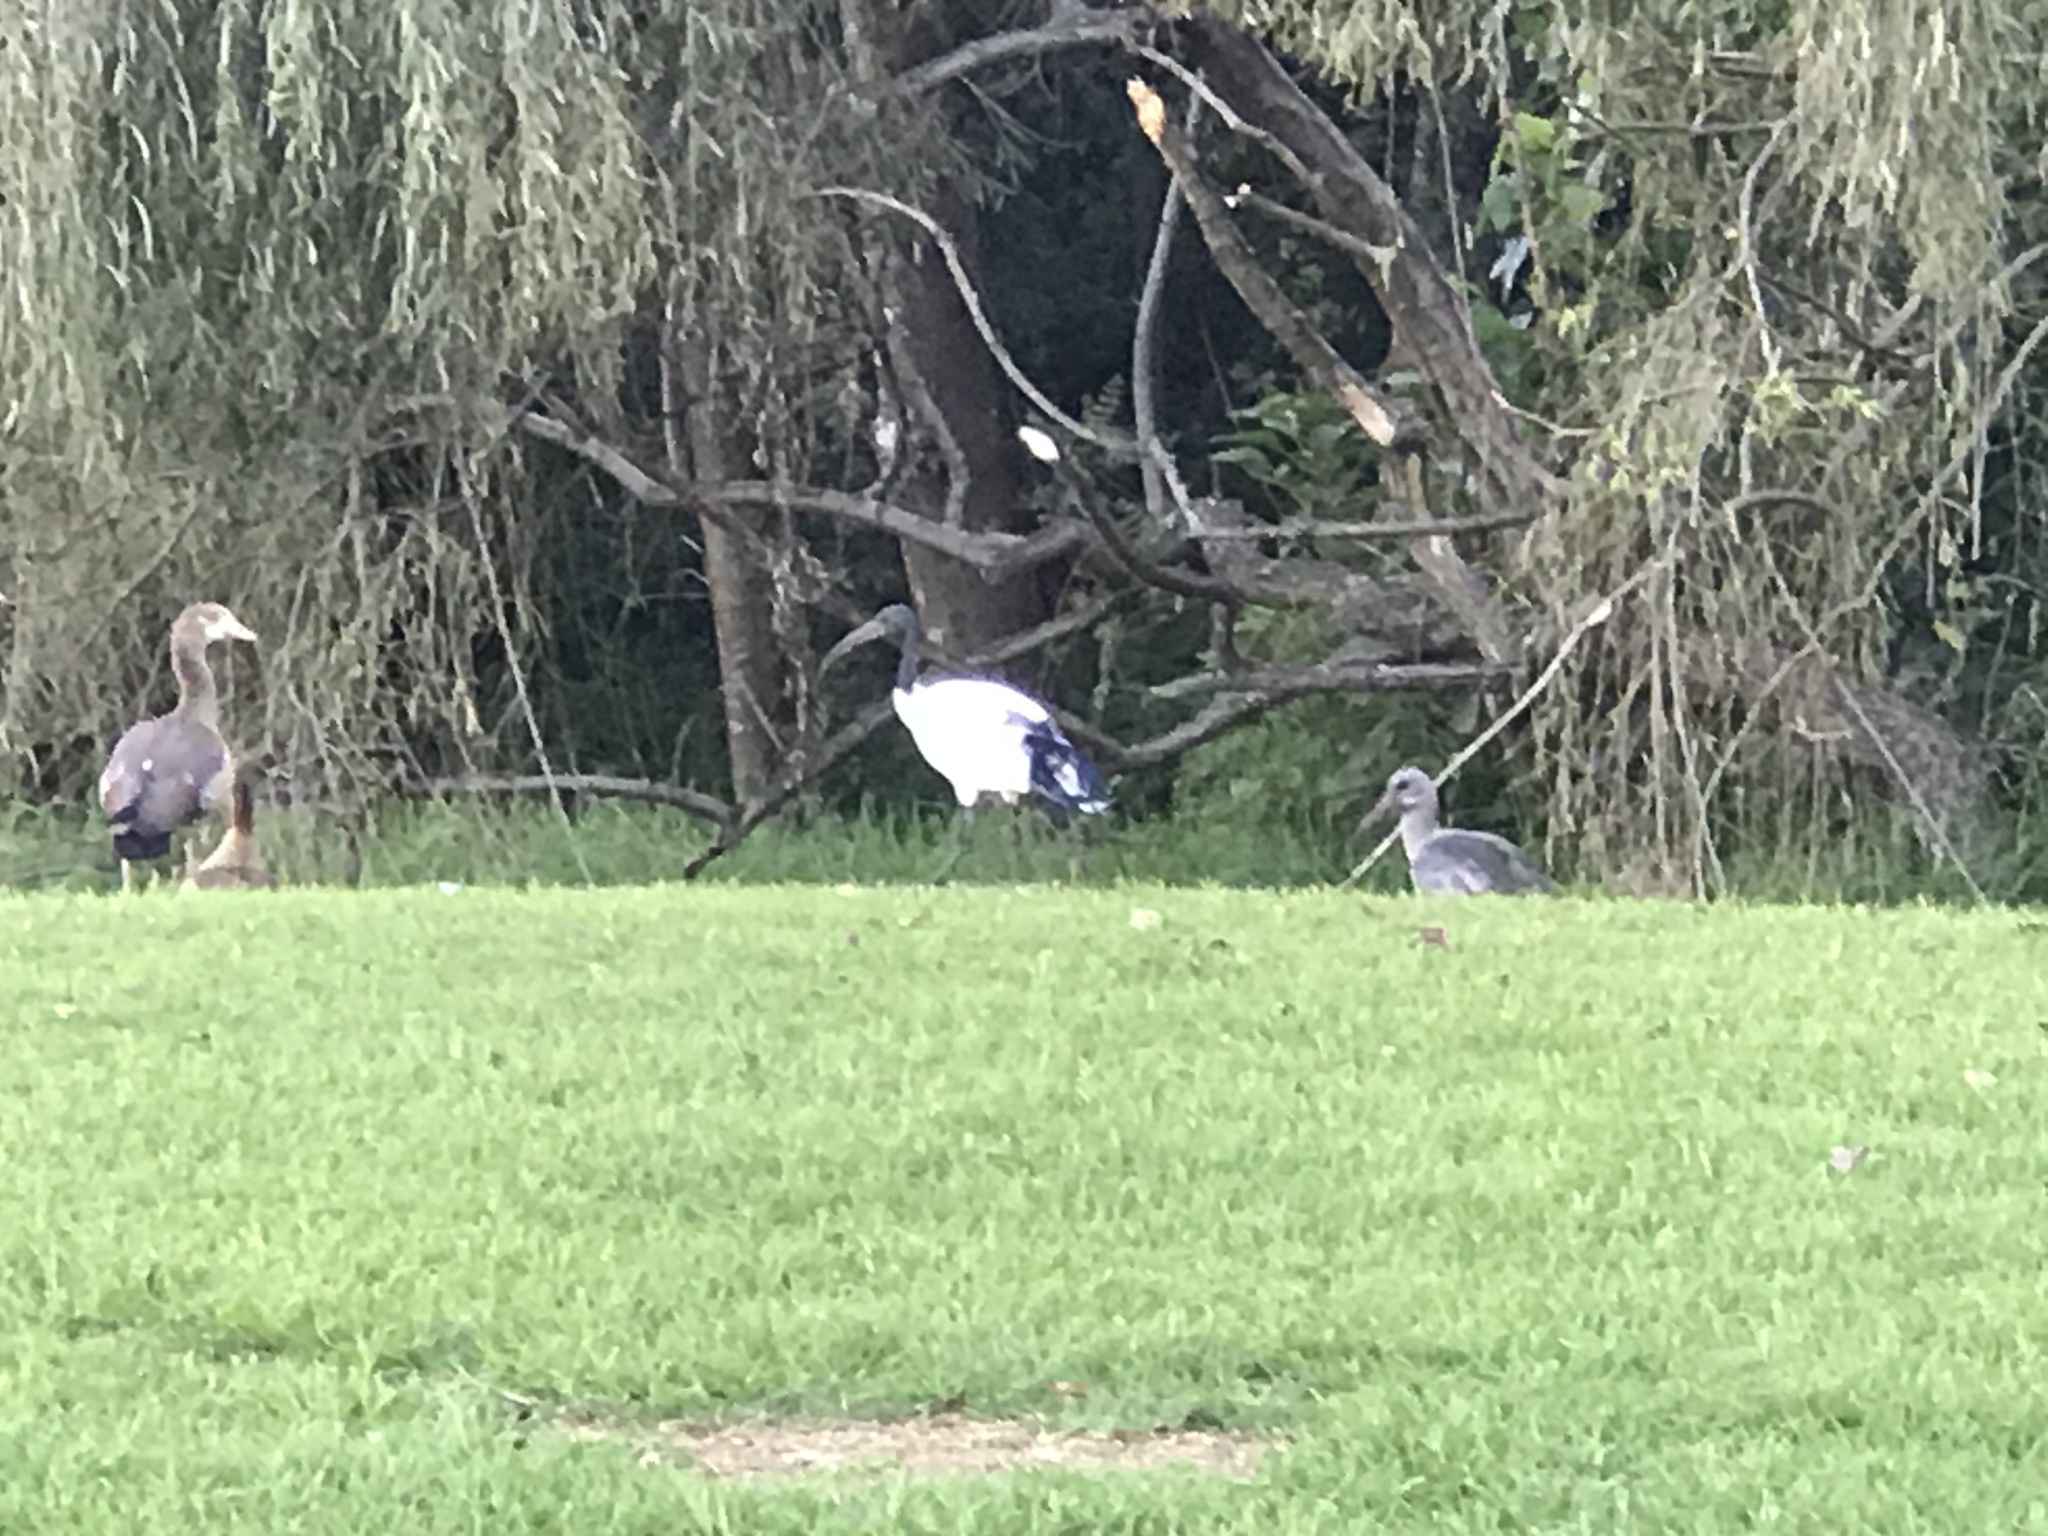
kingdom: Animalia
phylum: Chordata
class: Aves
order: Pelecaniformes
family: Threskiornithidae
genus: Threskiornis
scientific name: Threskiornis aethiopicus
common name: Sacred ibis
